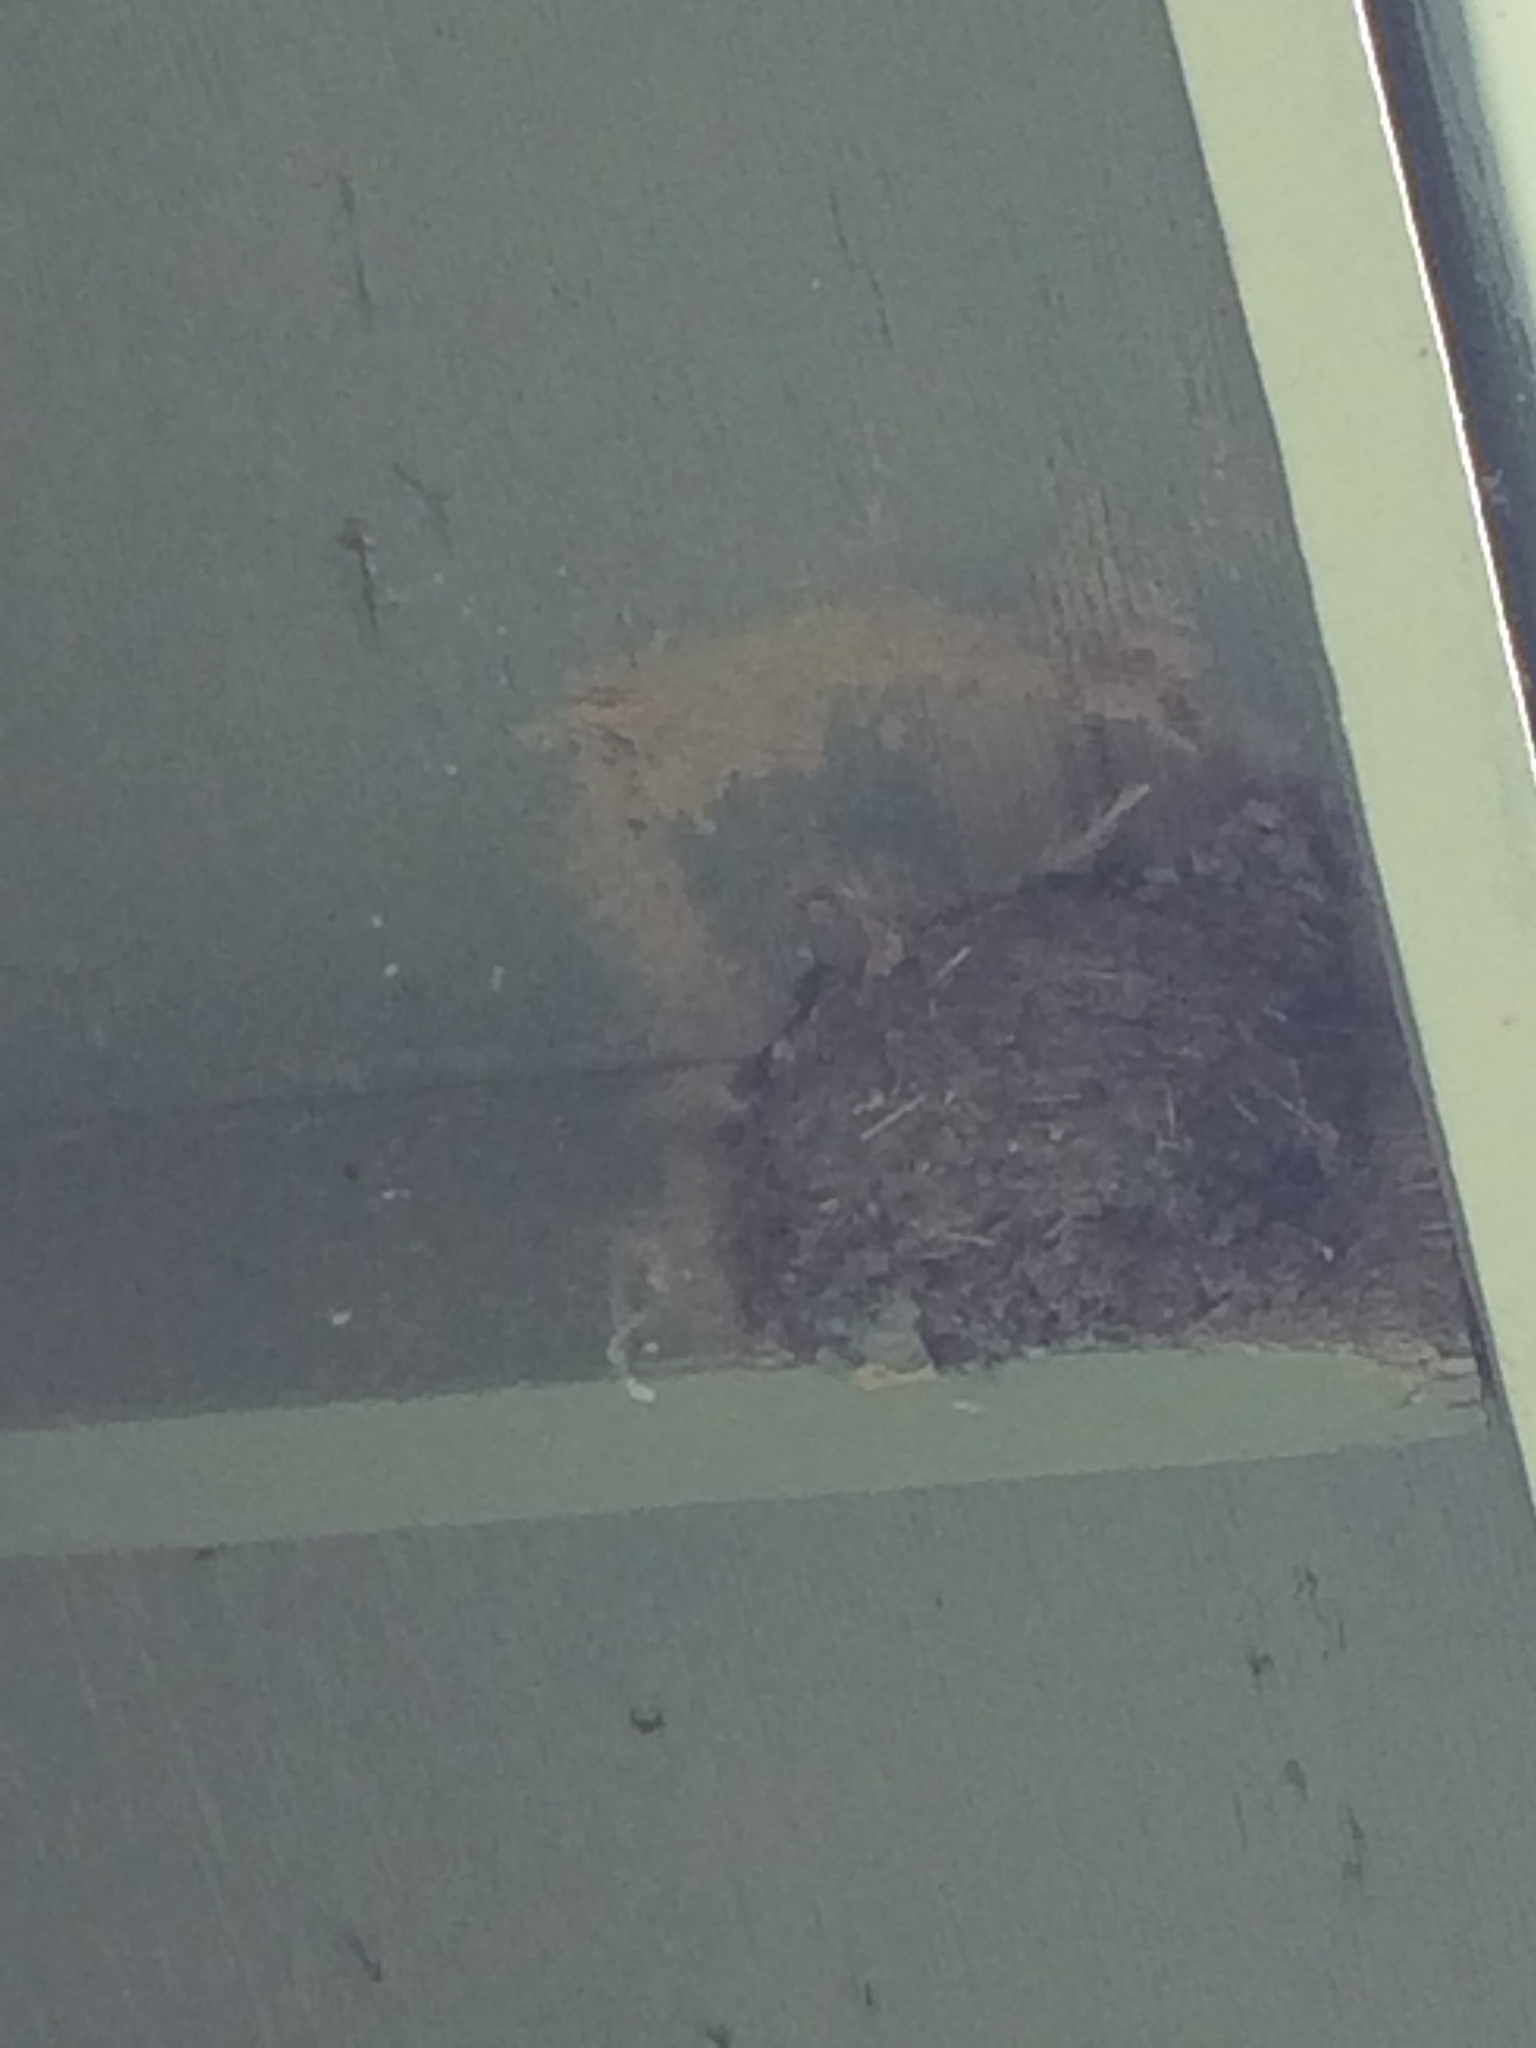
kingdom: Animalia
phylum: Chordata
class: Aves
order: Passeriformes
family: Hirundinidae
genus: Hirundo
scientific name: Hirundo rustica
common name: Barn swallow
